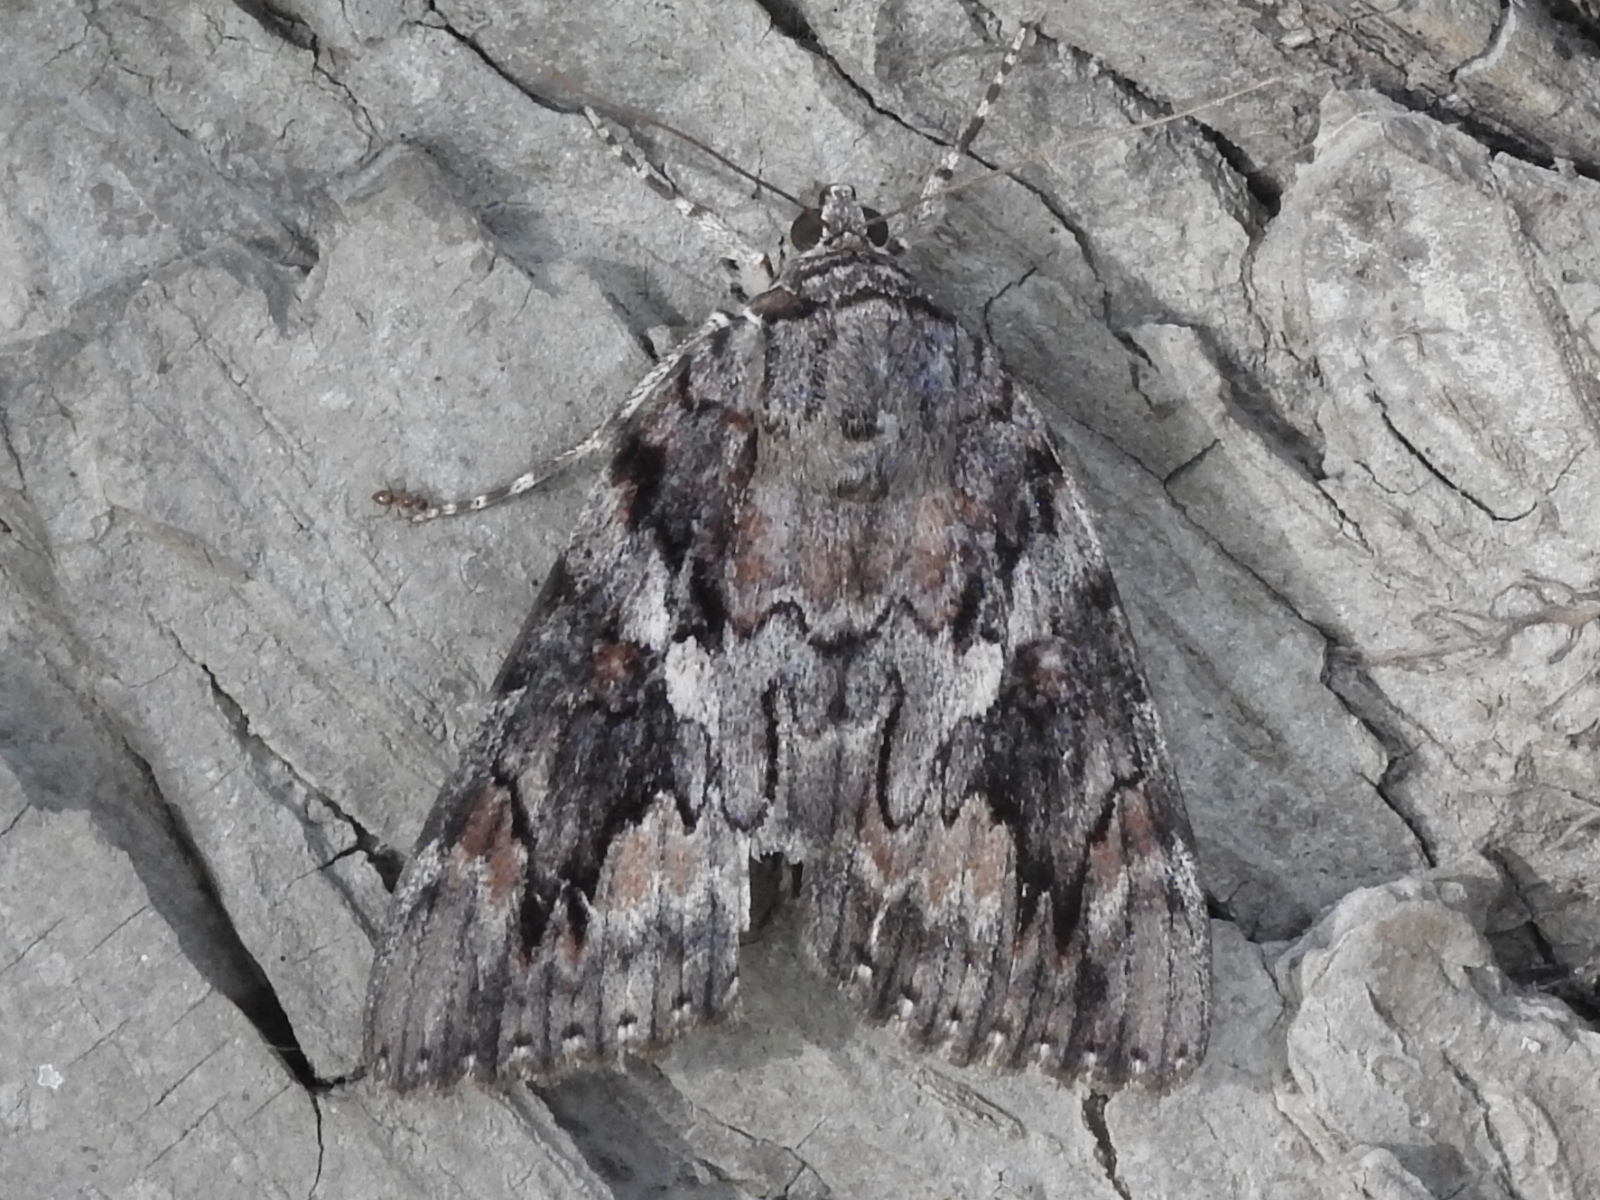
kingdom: Animalia
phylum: Arthropoda
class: Insecta
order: Lepidoptera
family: Erebidae
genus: Catocala
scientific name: Catocala agrippina
